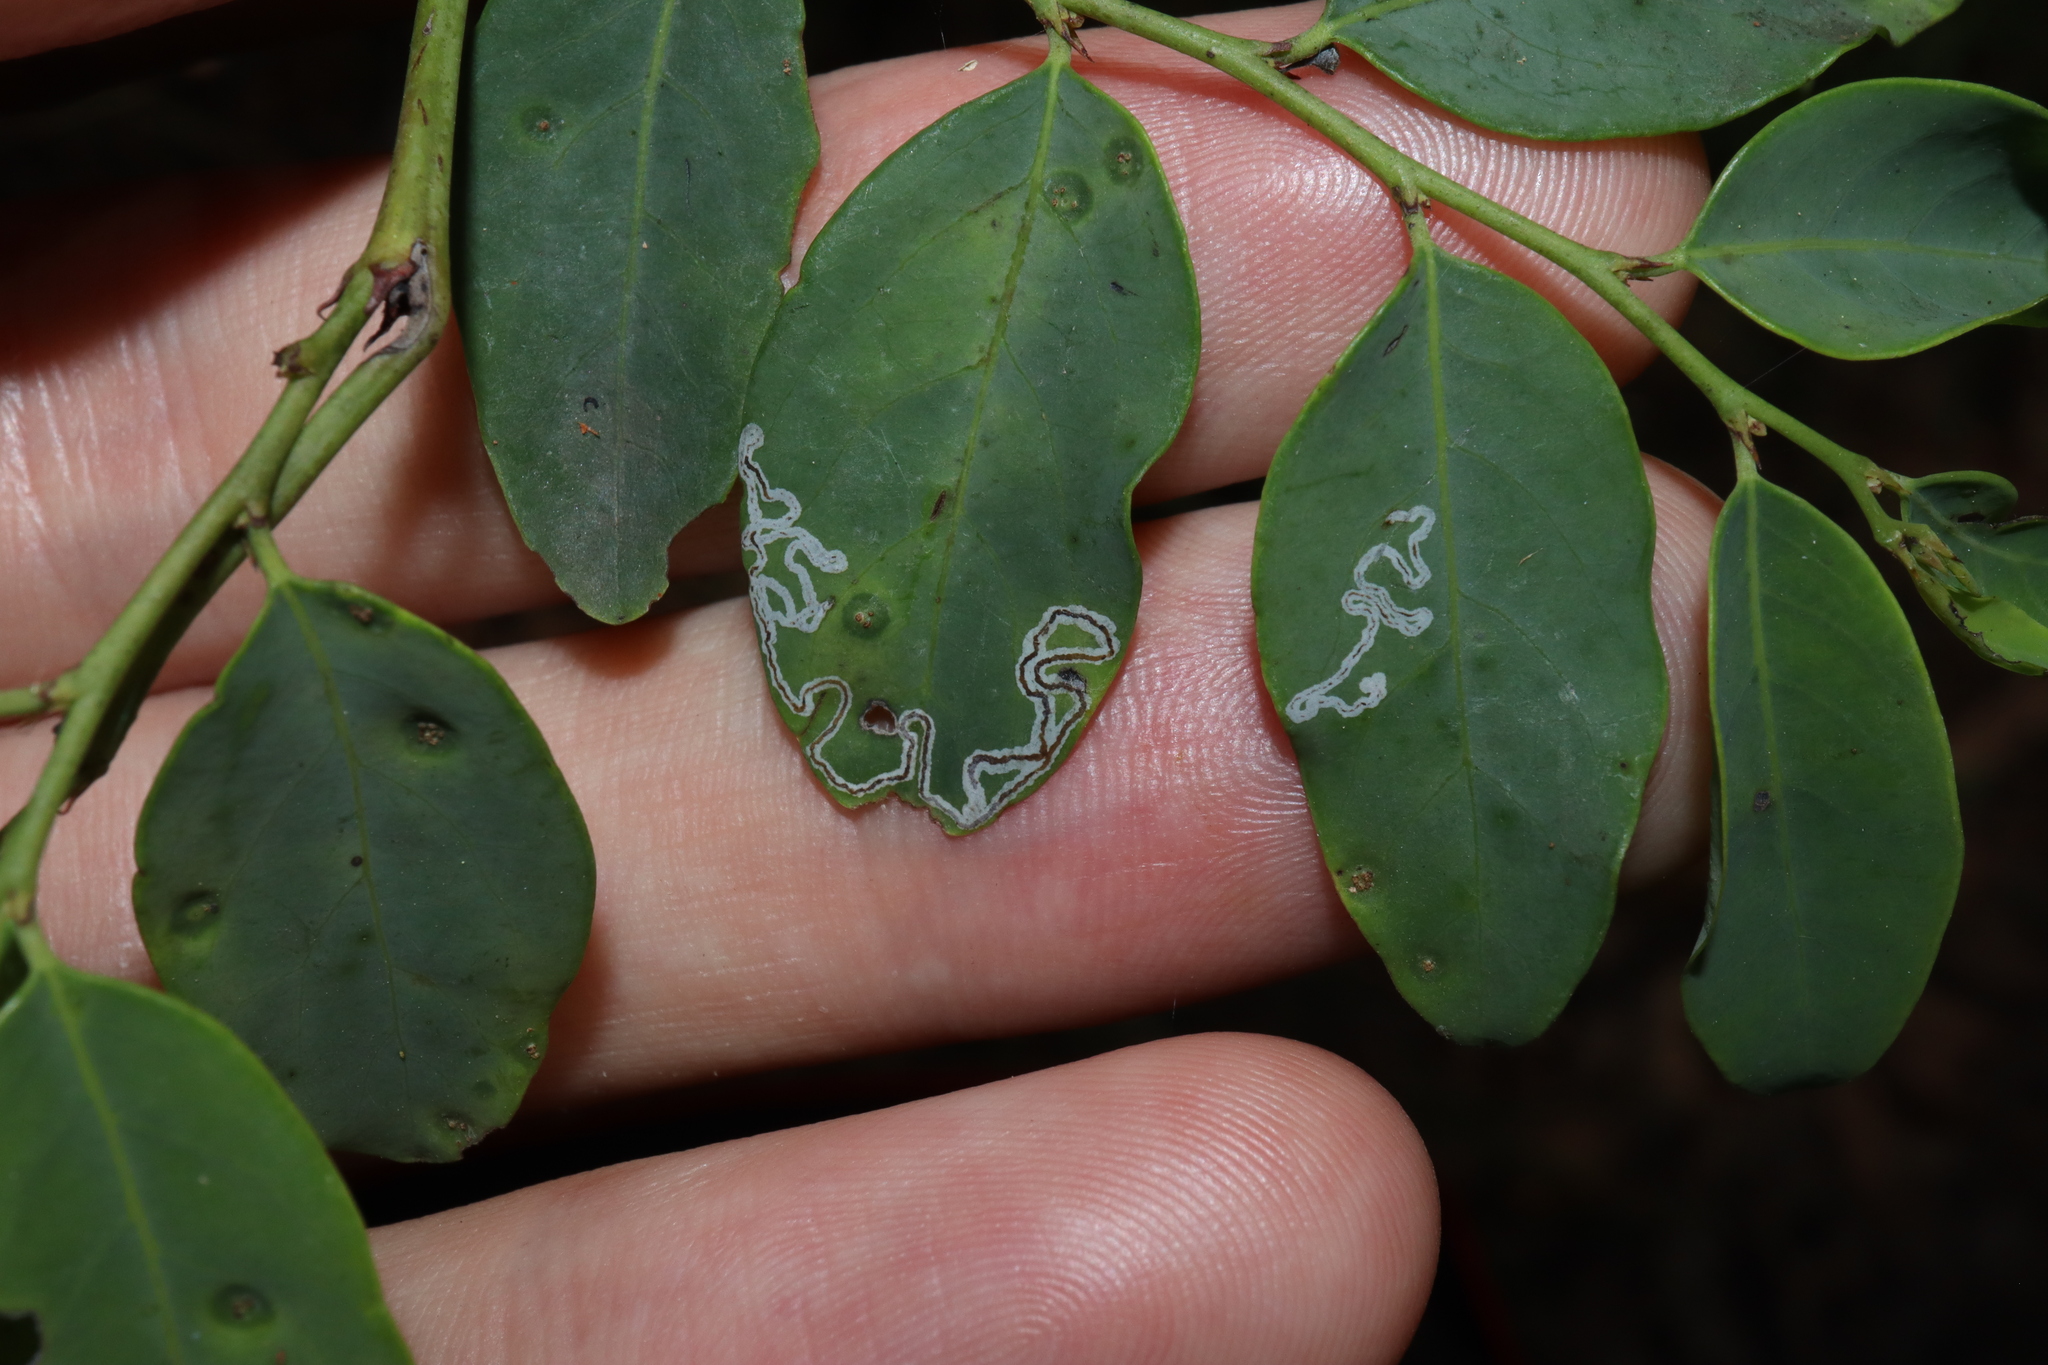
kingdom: Animalia
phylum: Arthropoda
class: Insecta
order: Lepidoptera
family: Gracillariidae
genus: Phyllocnistis
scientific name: Phyllocnistis diaugella
